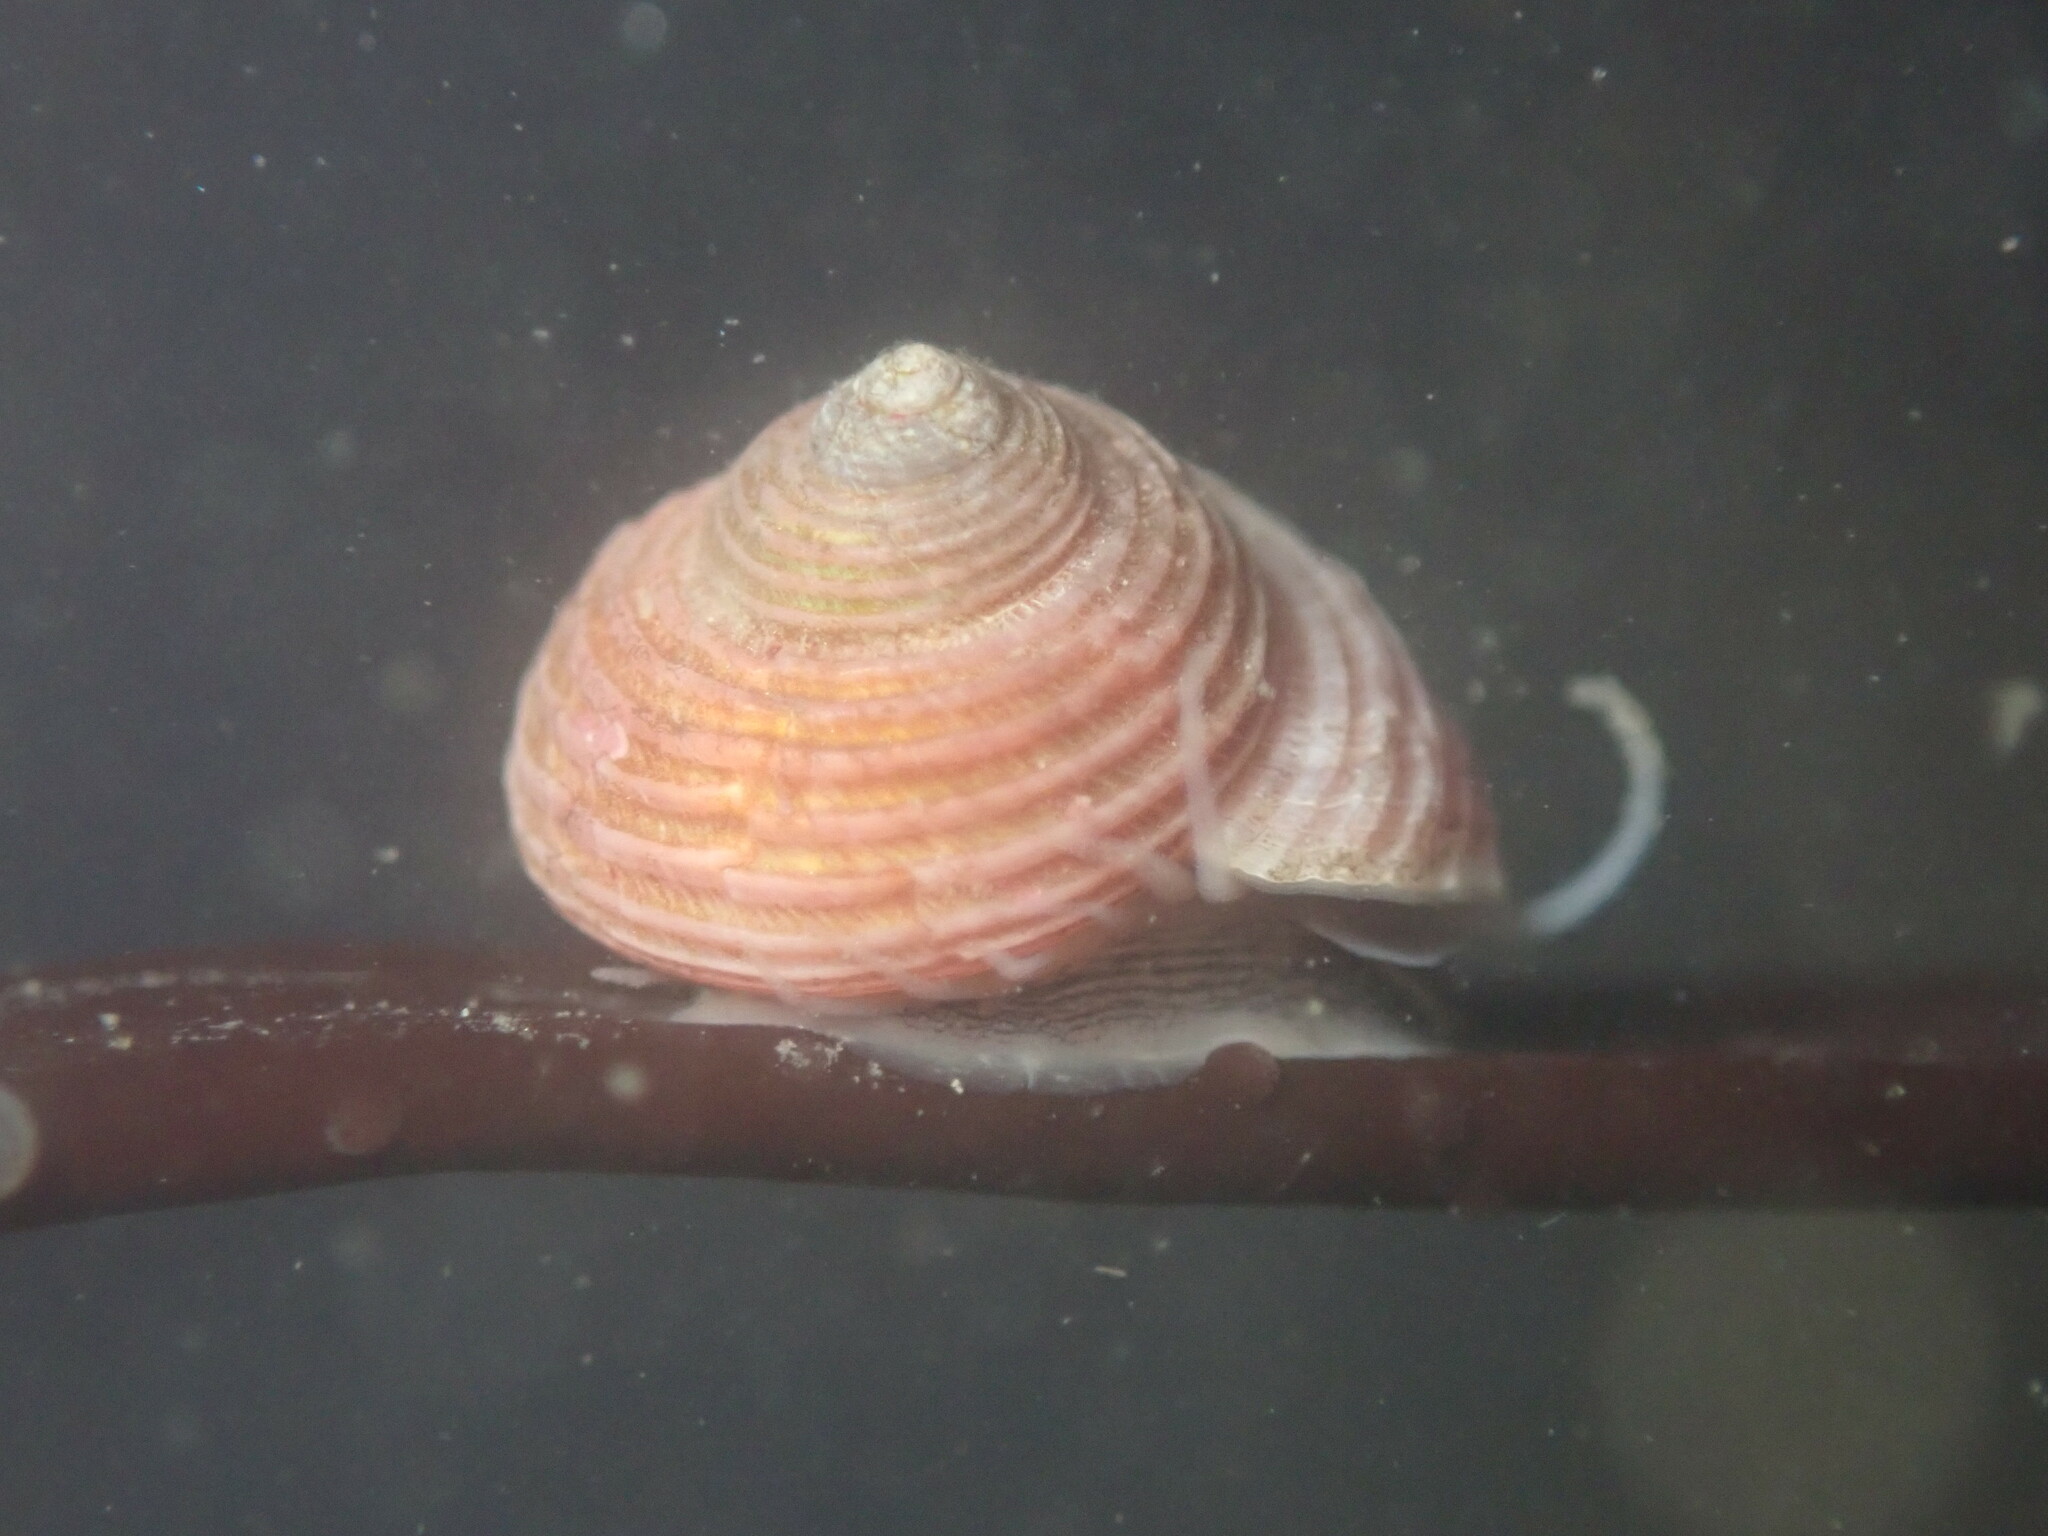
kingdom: Animalia
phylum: Mollusca
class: Gastropoda
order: Trochida
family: Margaritidae
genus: Margarites
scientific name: Margarites pupillus
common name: Puppet margarite
